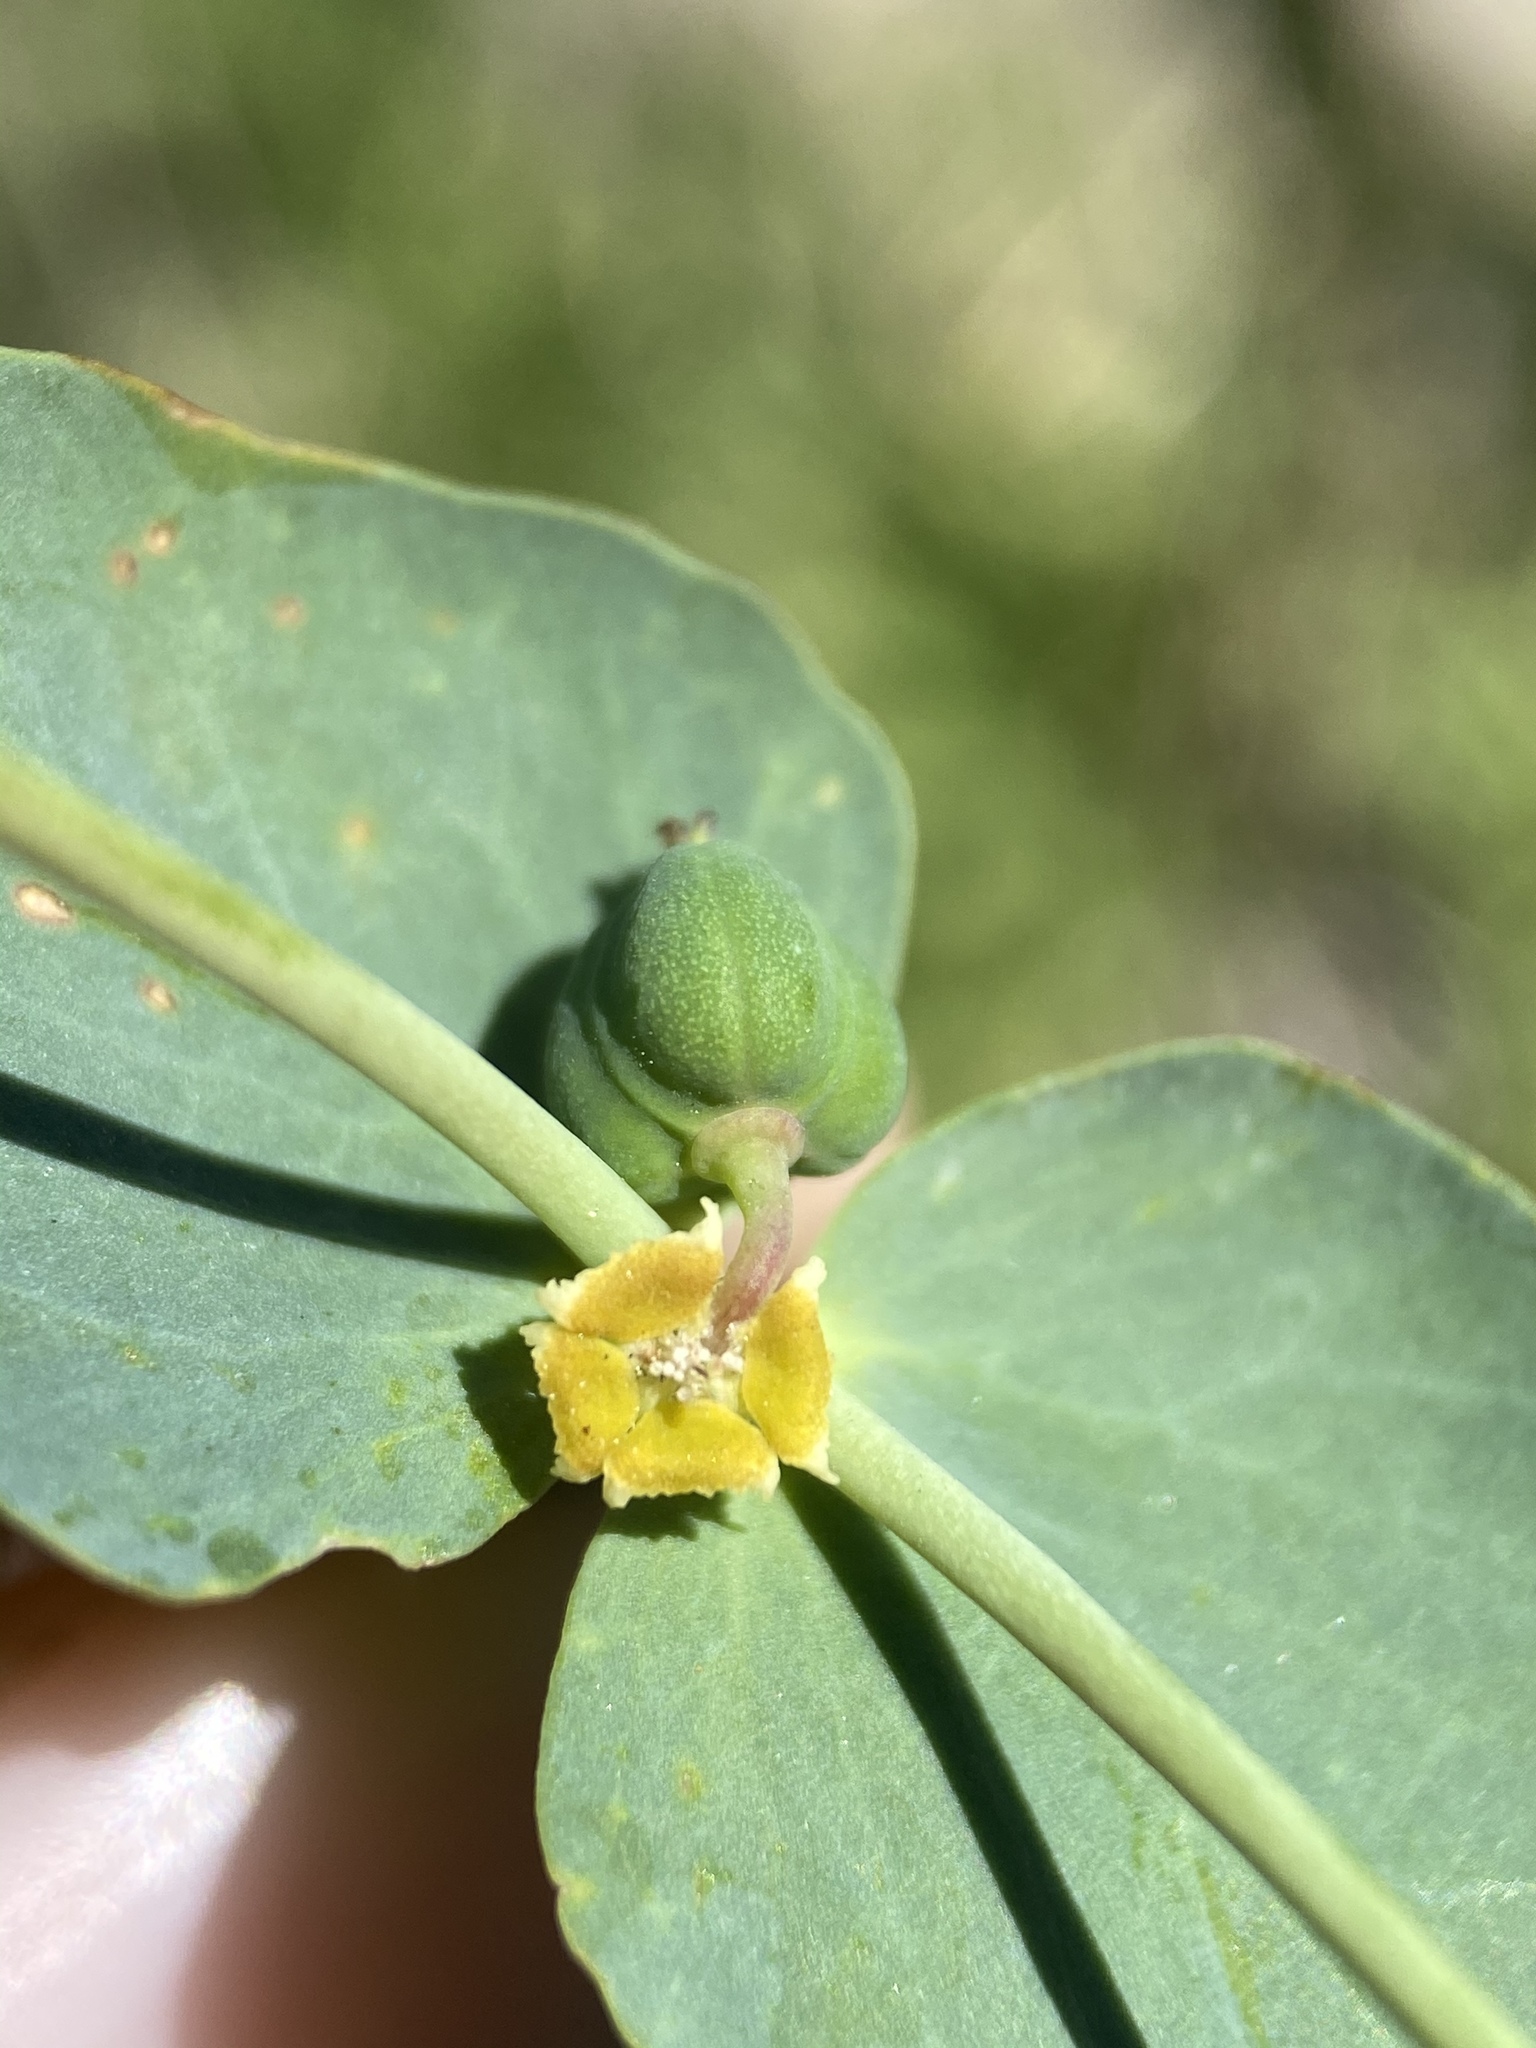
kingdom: Plantae
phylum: Tracheophyta
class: Magnoliopsida
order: Malpighiales
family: Euphorbiaceae
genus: Euphorbia
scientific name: Euphorbia brachycera
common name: Shorthorn spurge
